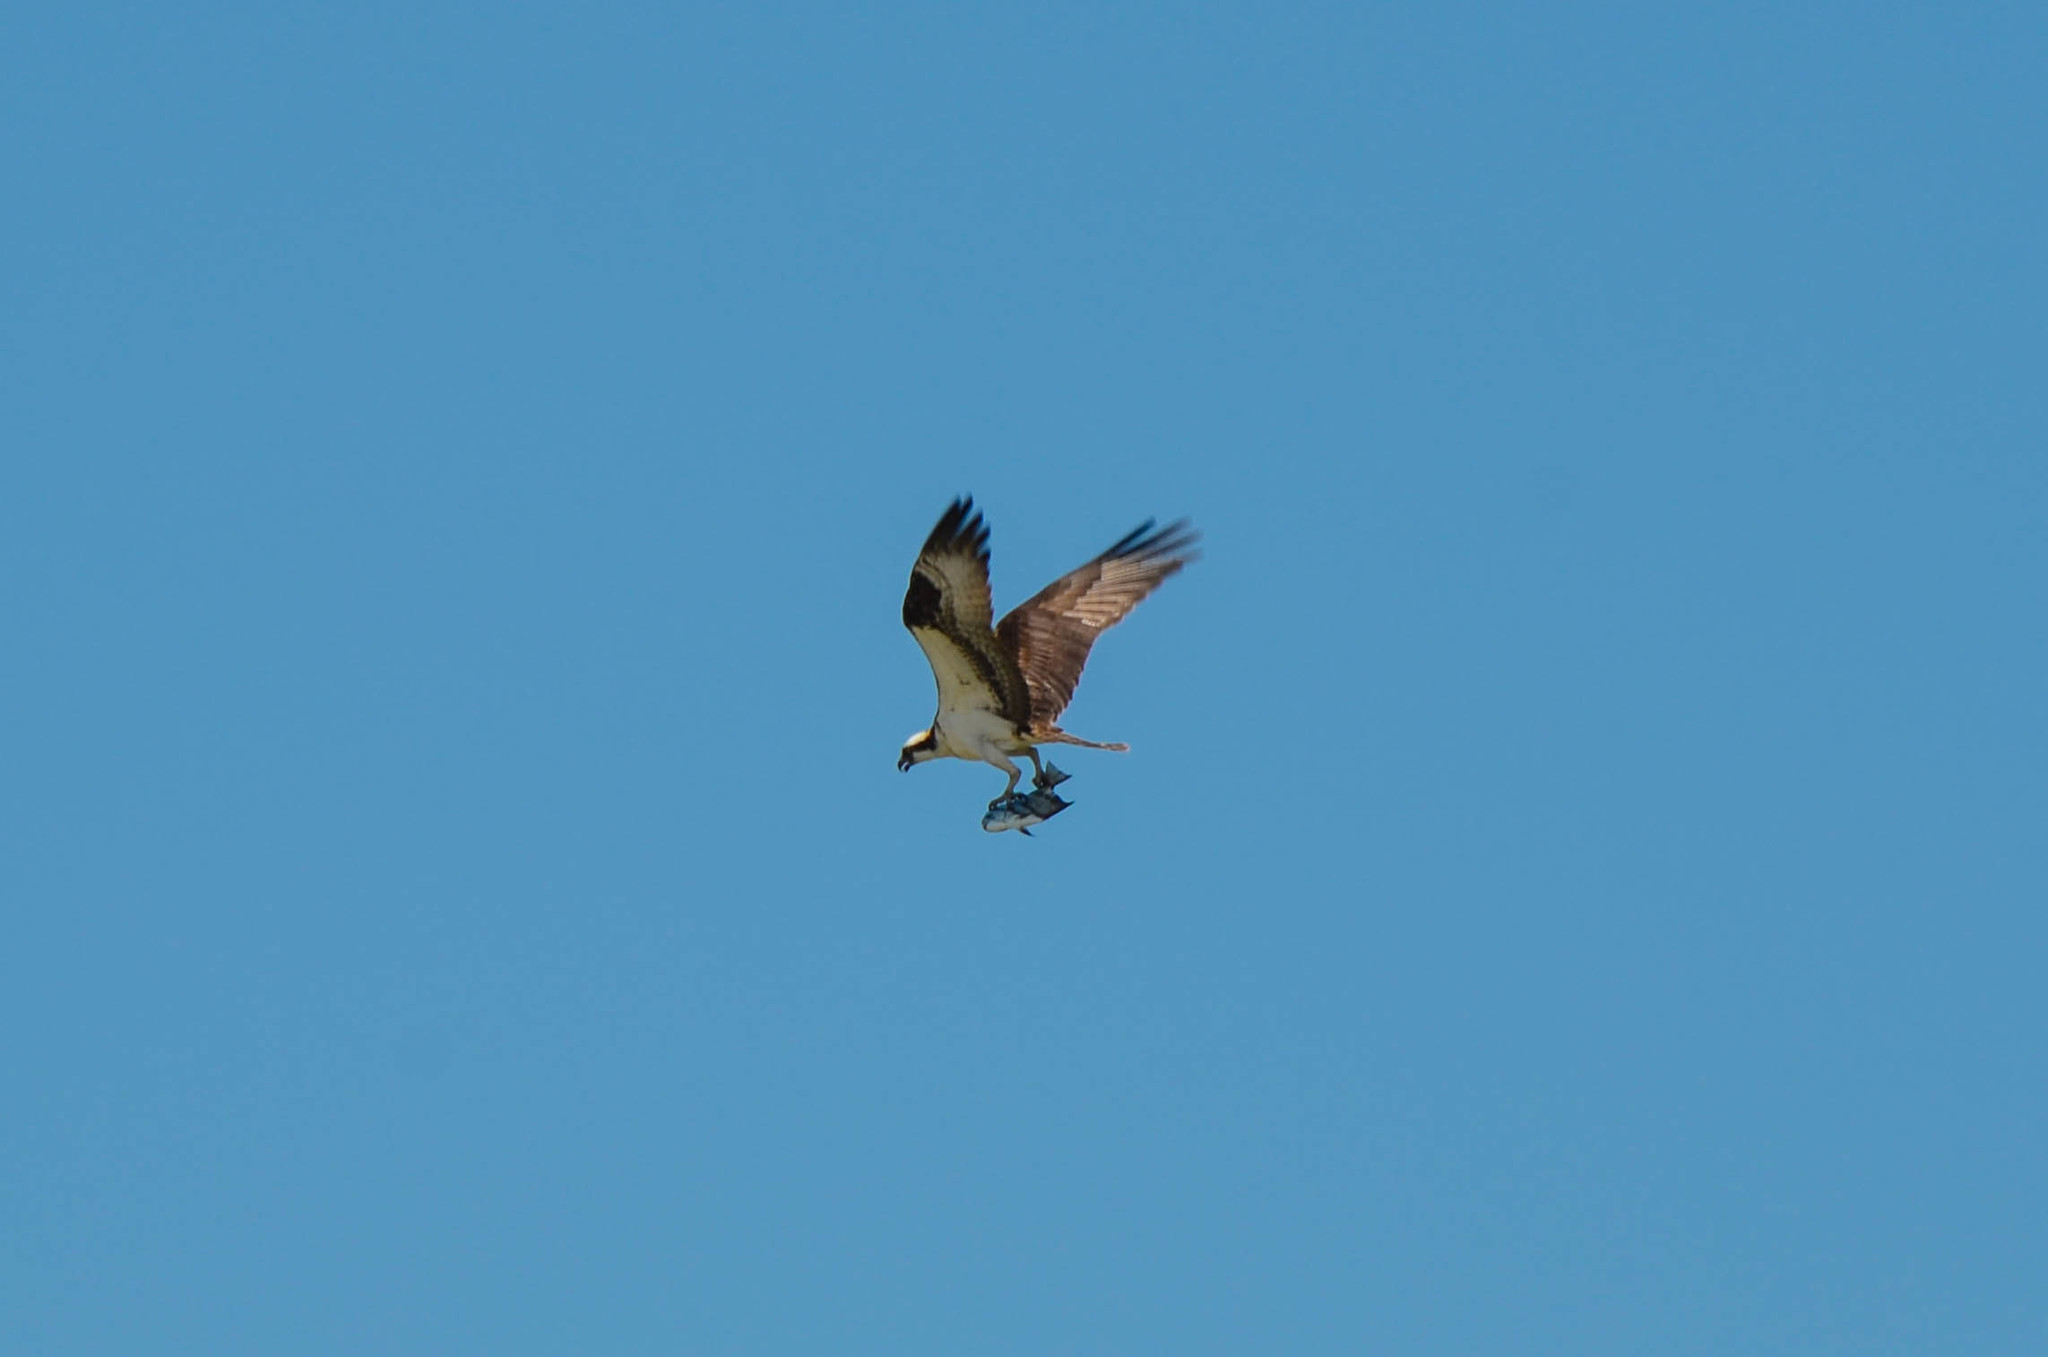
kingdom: Animalia
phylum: Chordata
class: Aves
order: Accipitriformes
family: Pandionidae
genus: Pandion
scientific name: Pandion haliaetus
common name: Osprey
